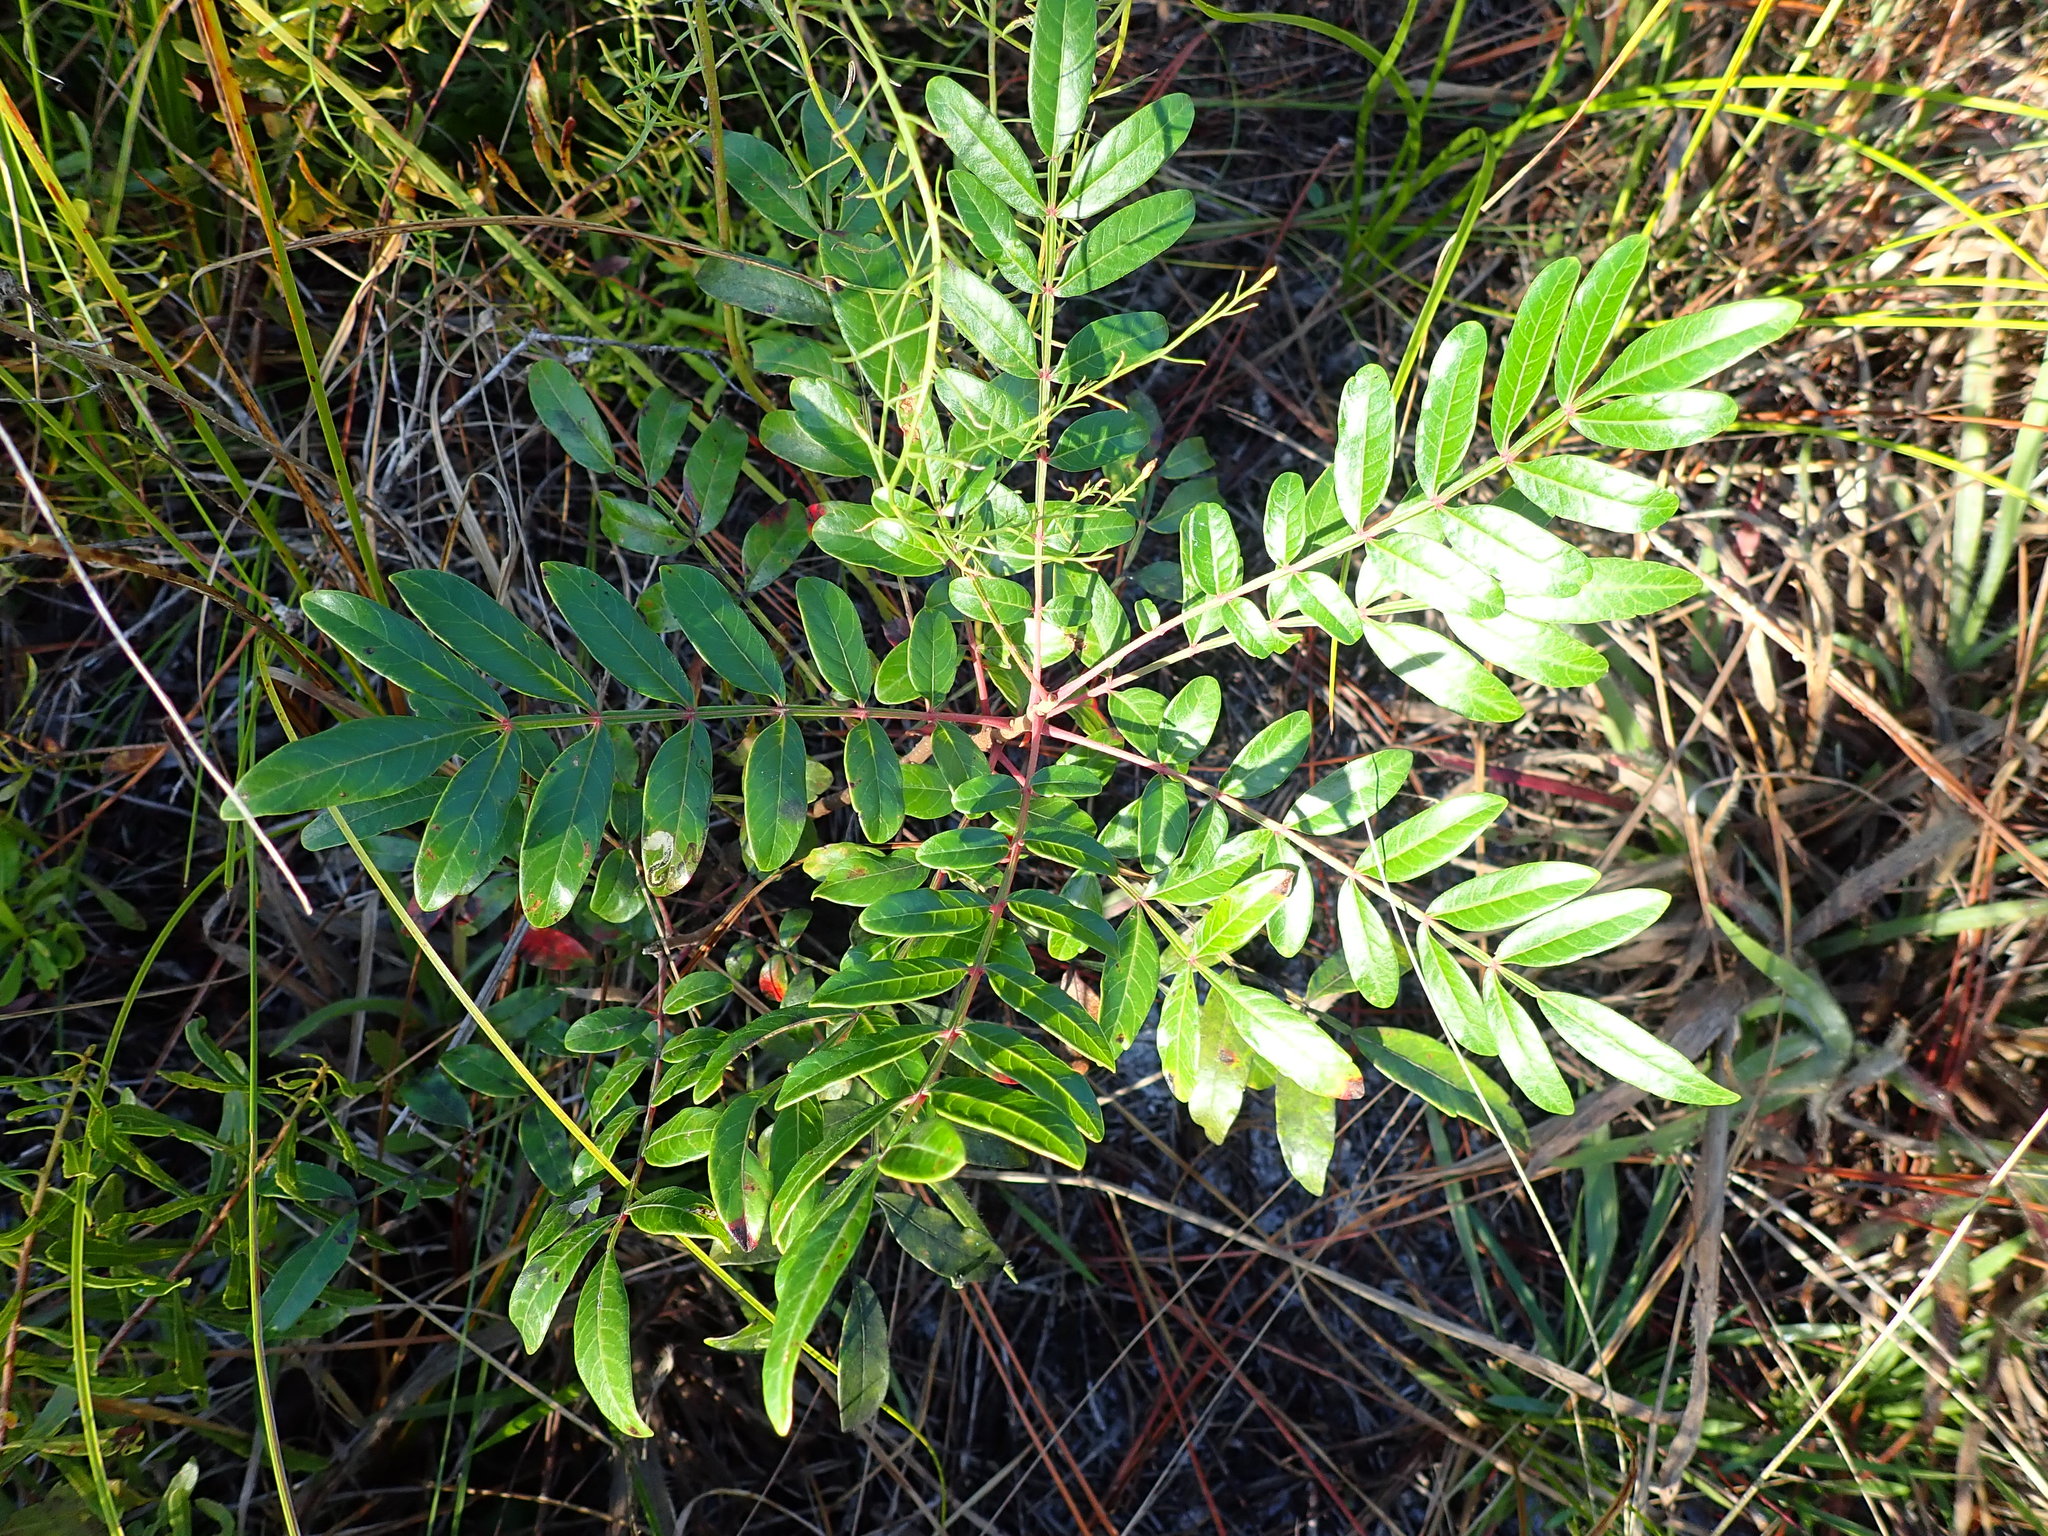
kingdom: Plantae
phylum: Tracheophyta
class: Magnoliopsida
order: Sapindales
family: Anacardiaceae
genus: Rhus
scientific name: Rhus copallina
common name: Shining sumac
